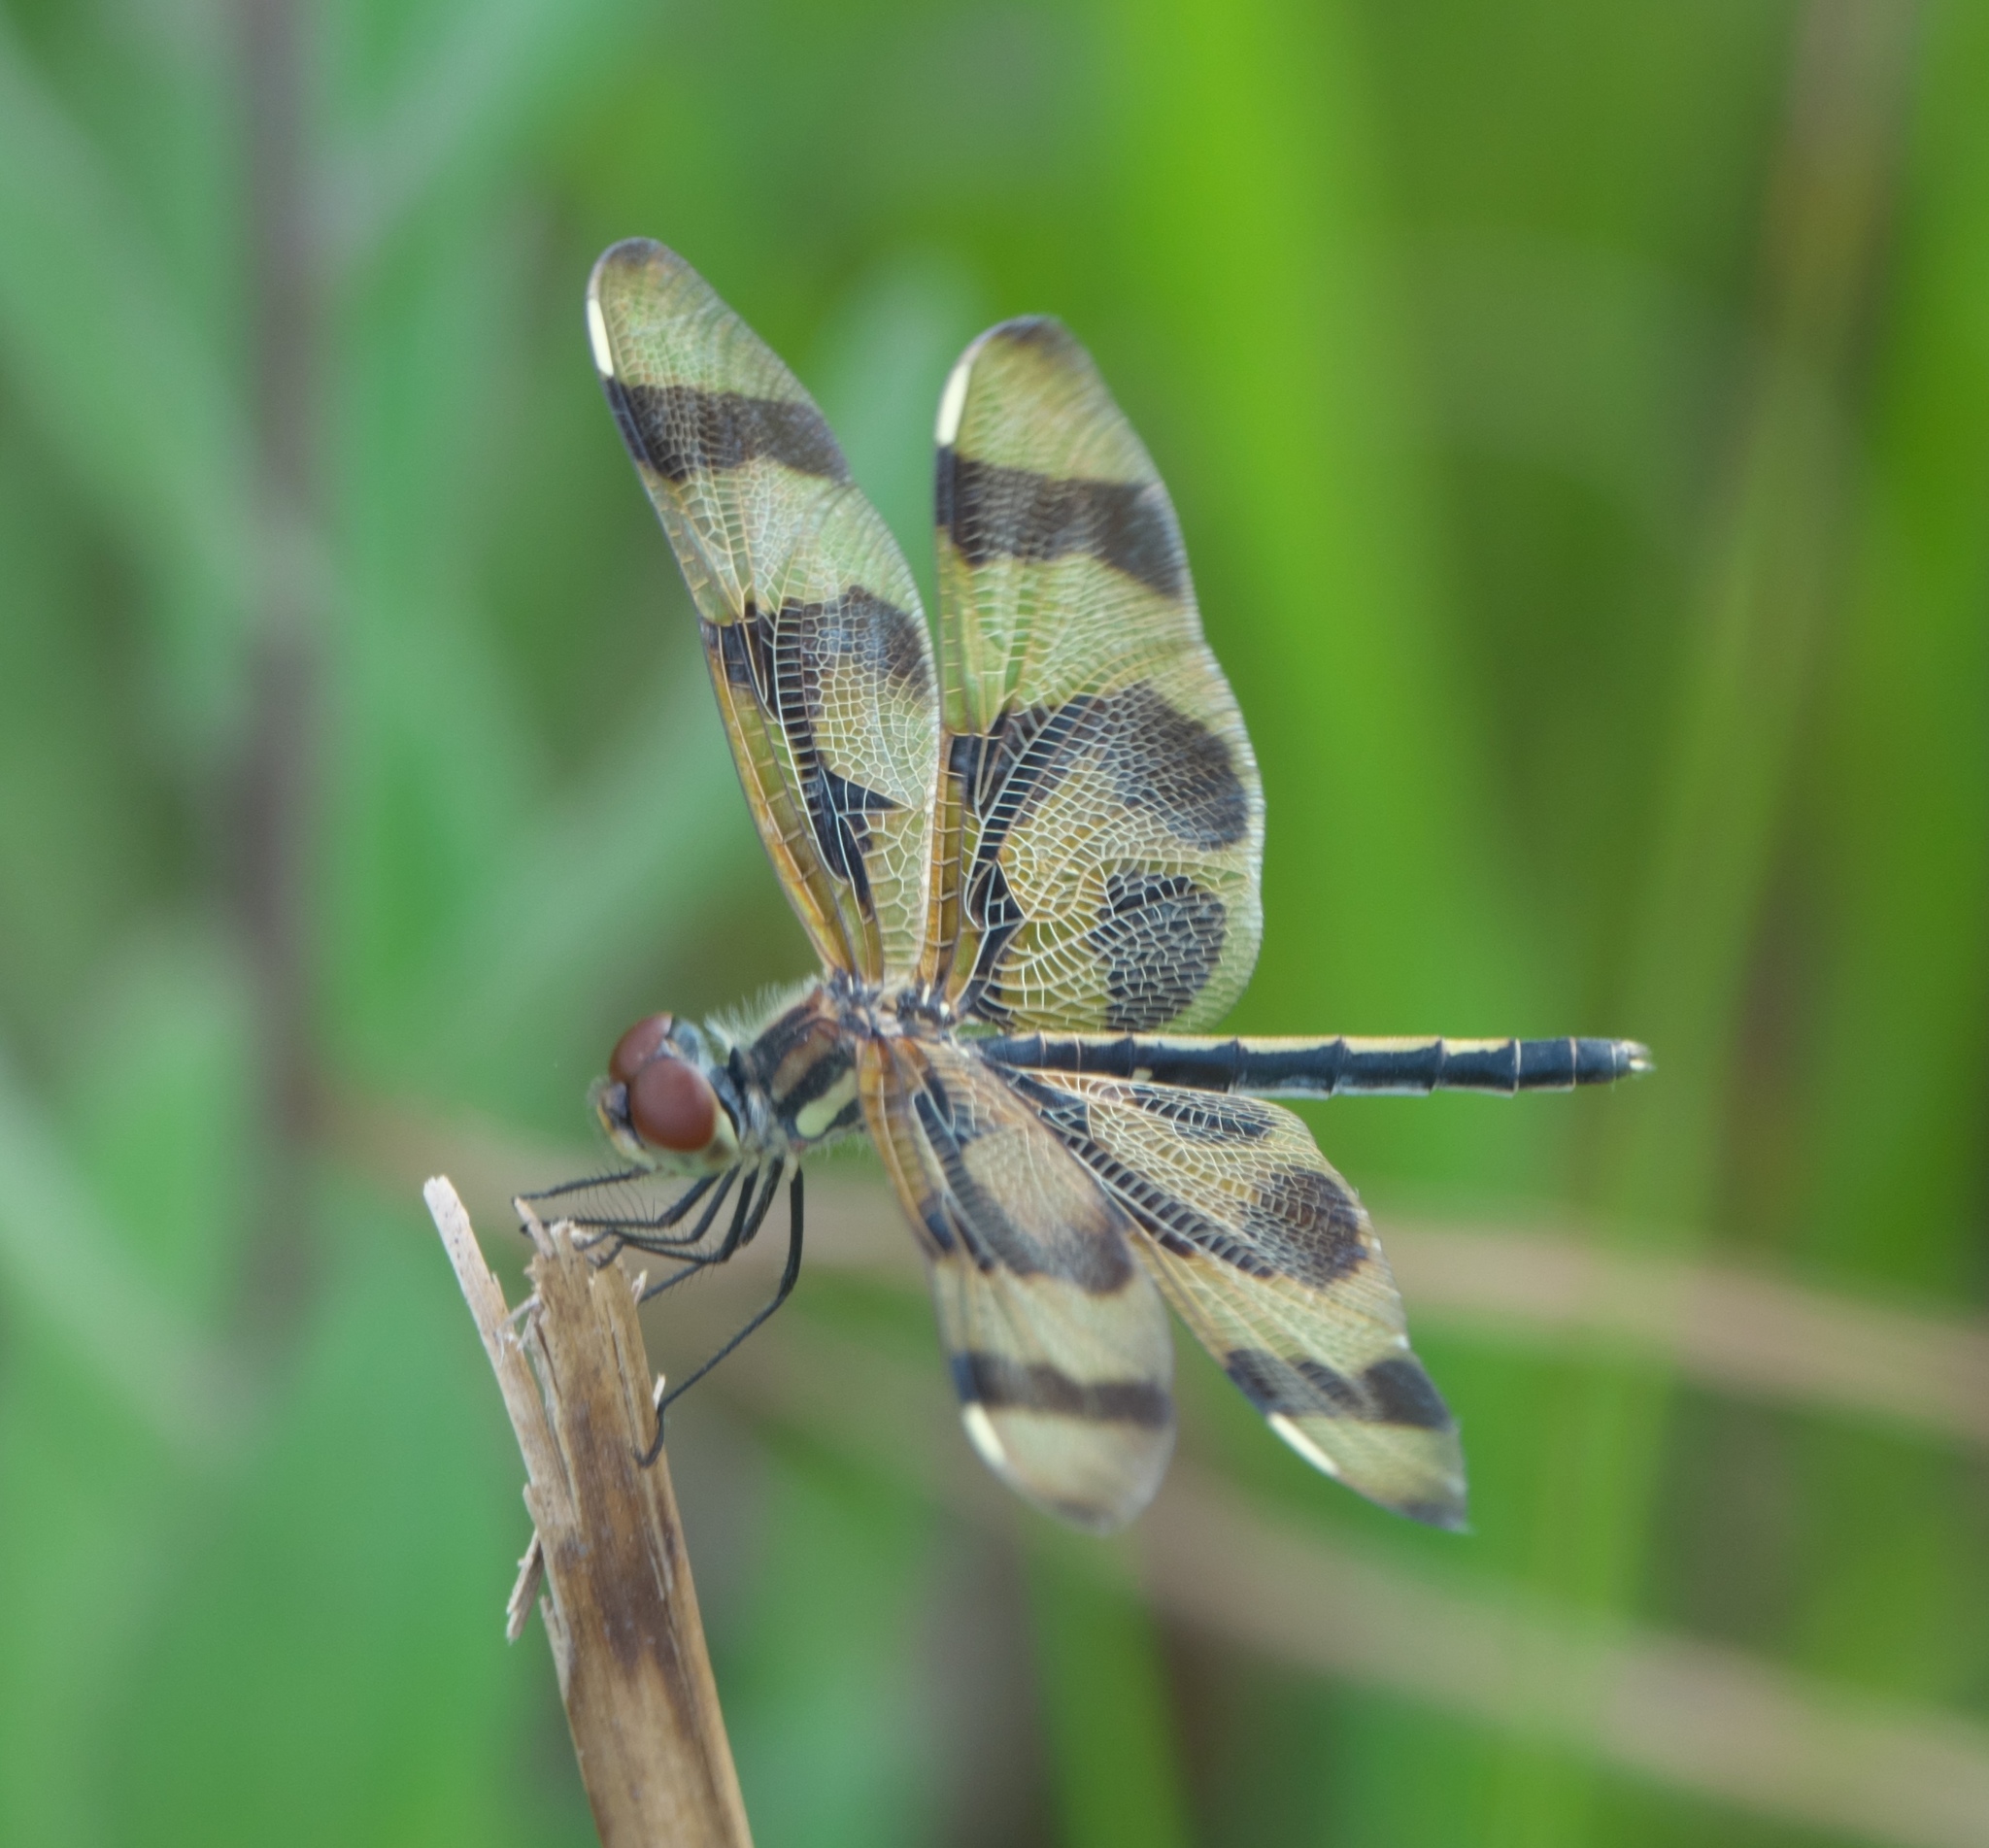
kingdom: Animalia
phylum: Arthropoda
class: Insecta
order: Odonata
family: Libellulidae
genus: Celithemis
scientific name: Celithemis eponina
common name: Halloween pennant
